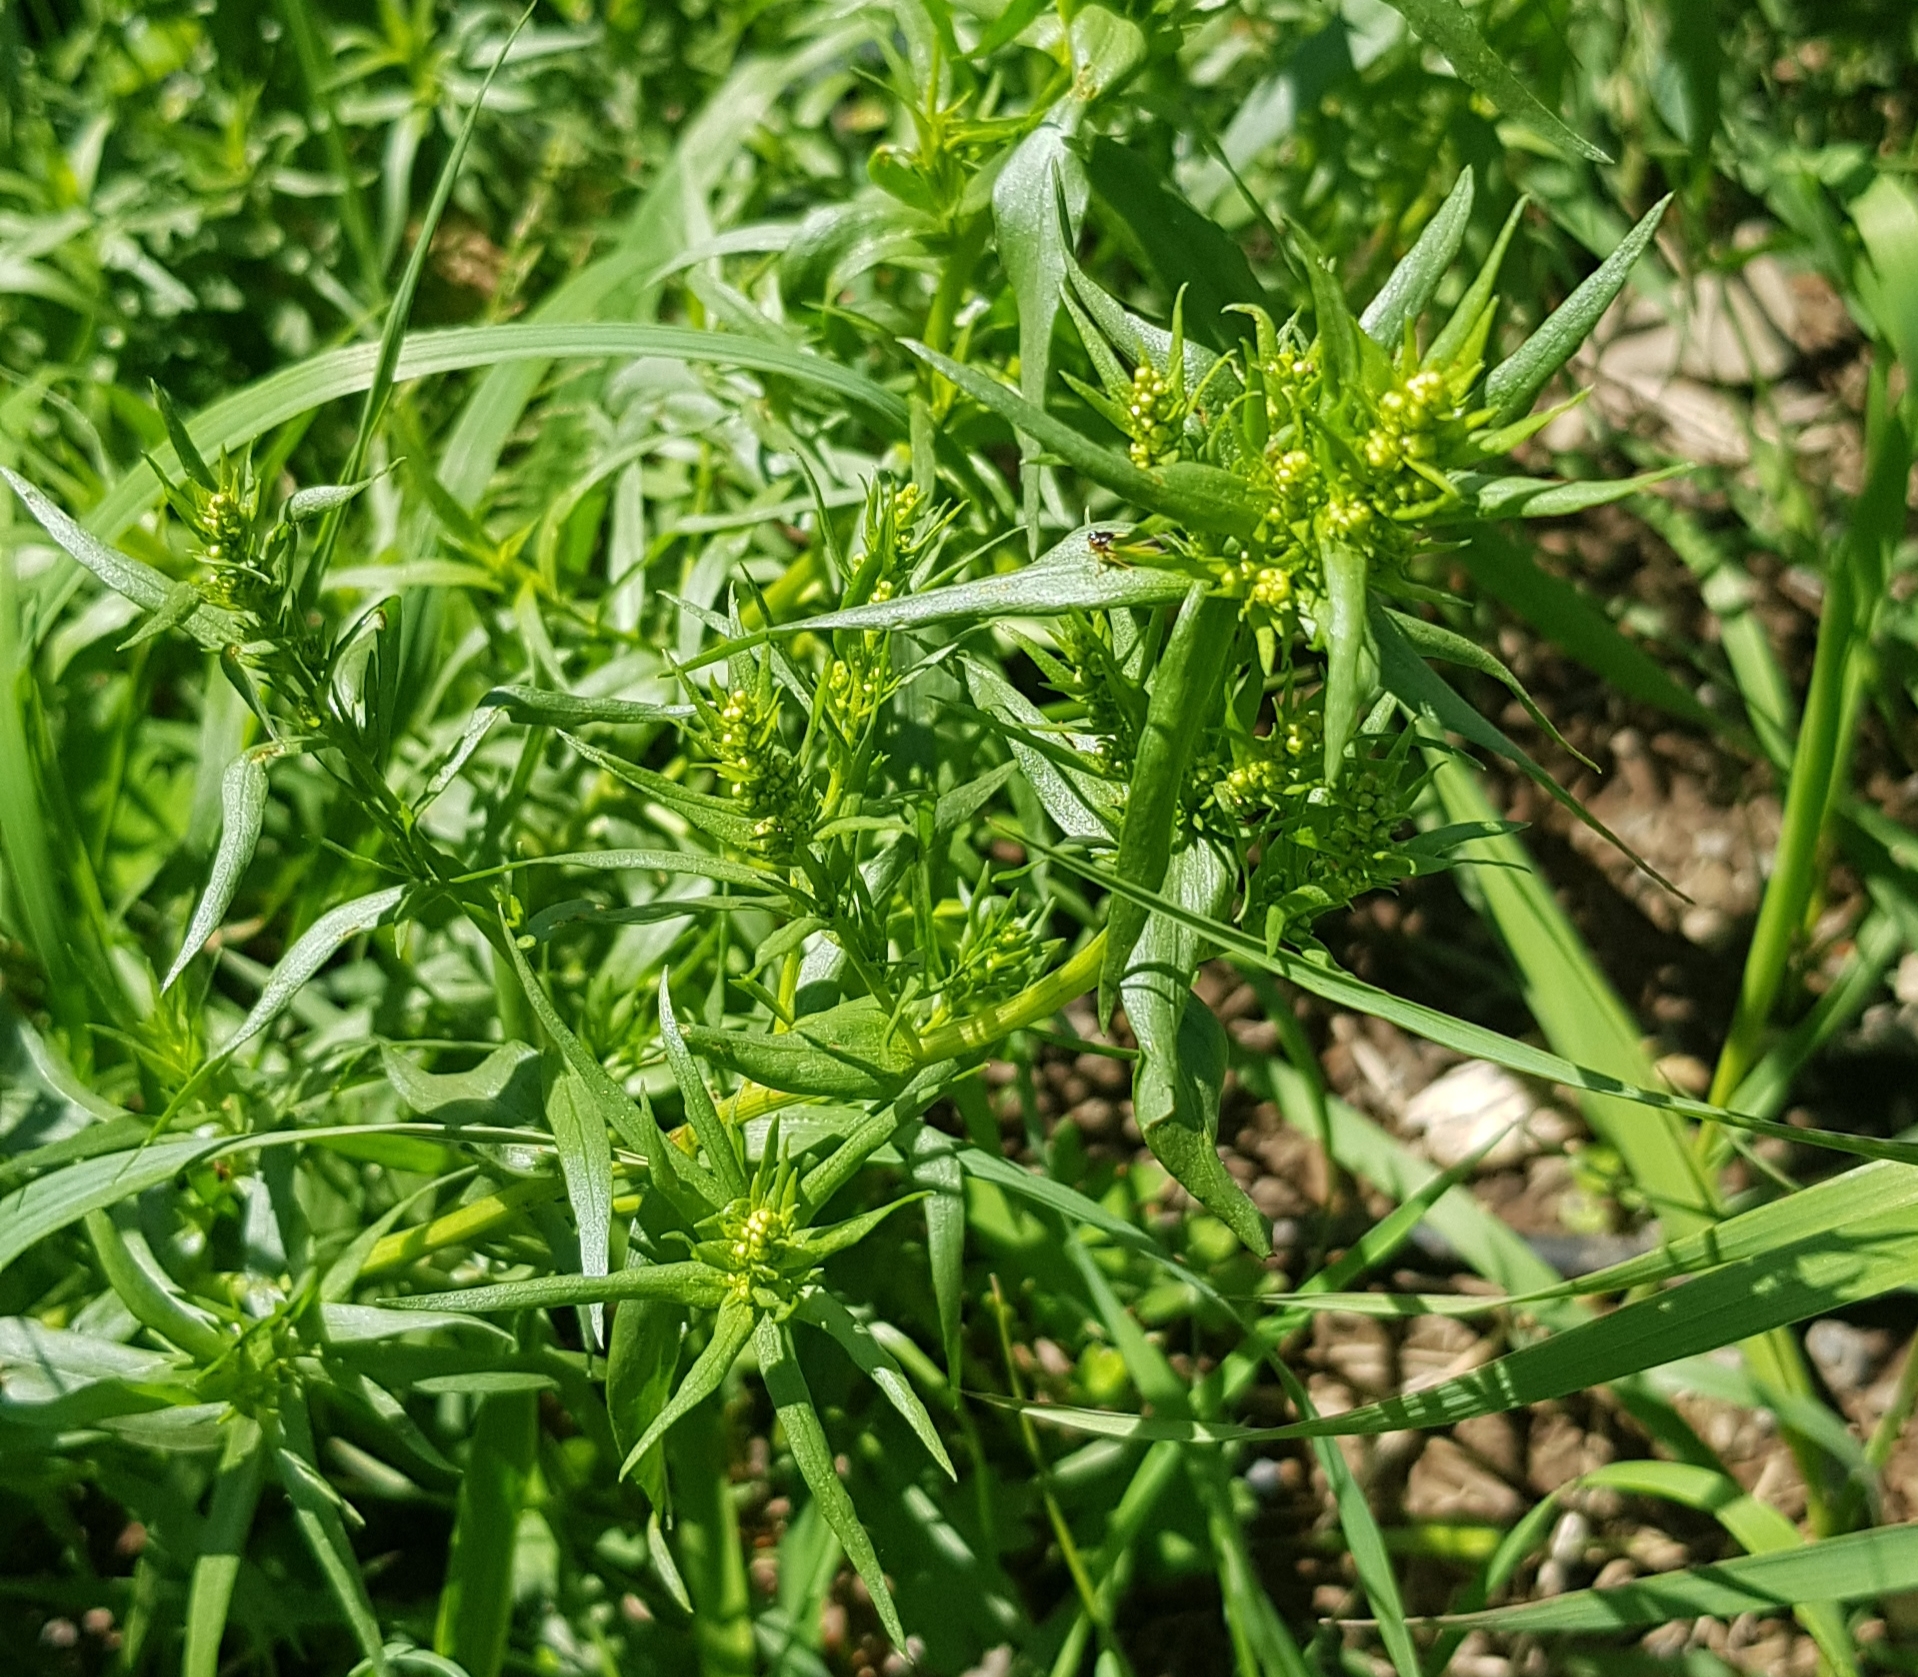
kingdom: Plantae
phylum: Tracheophyta
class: Magnoliopsida
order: Asterales
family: Asteraceae
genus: Artemisia
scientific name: Artemisia dracunculus
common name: Tarragon
